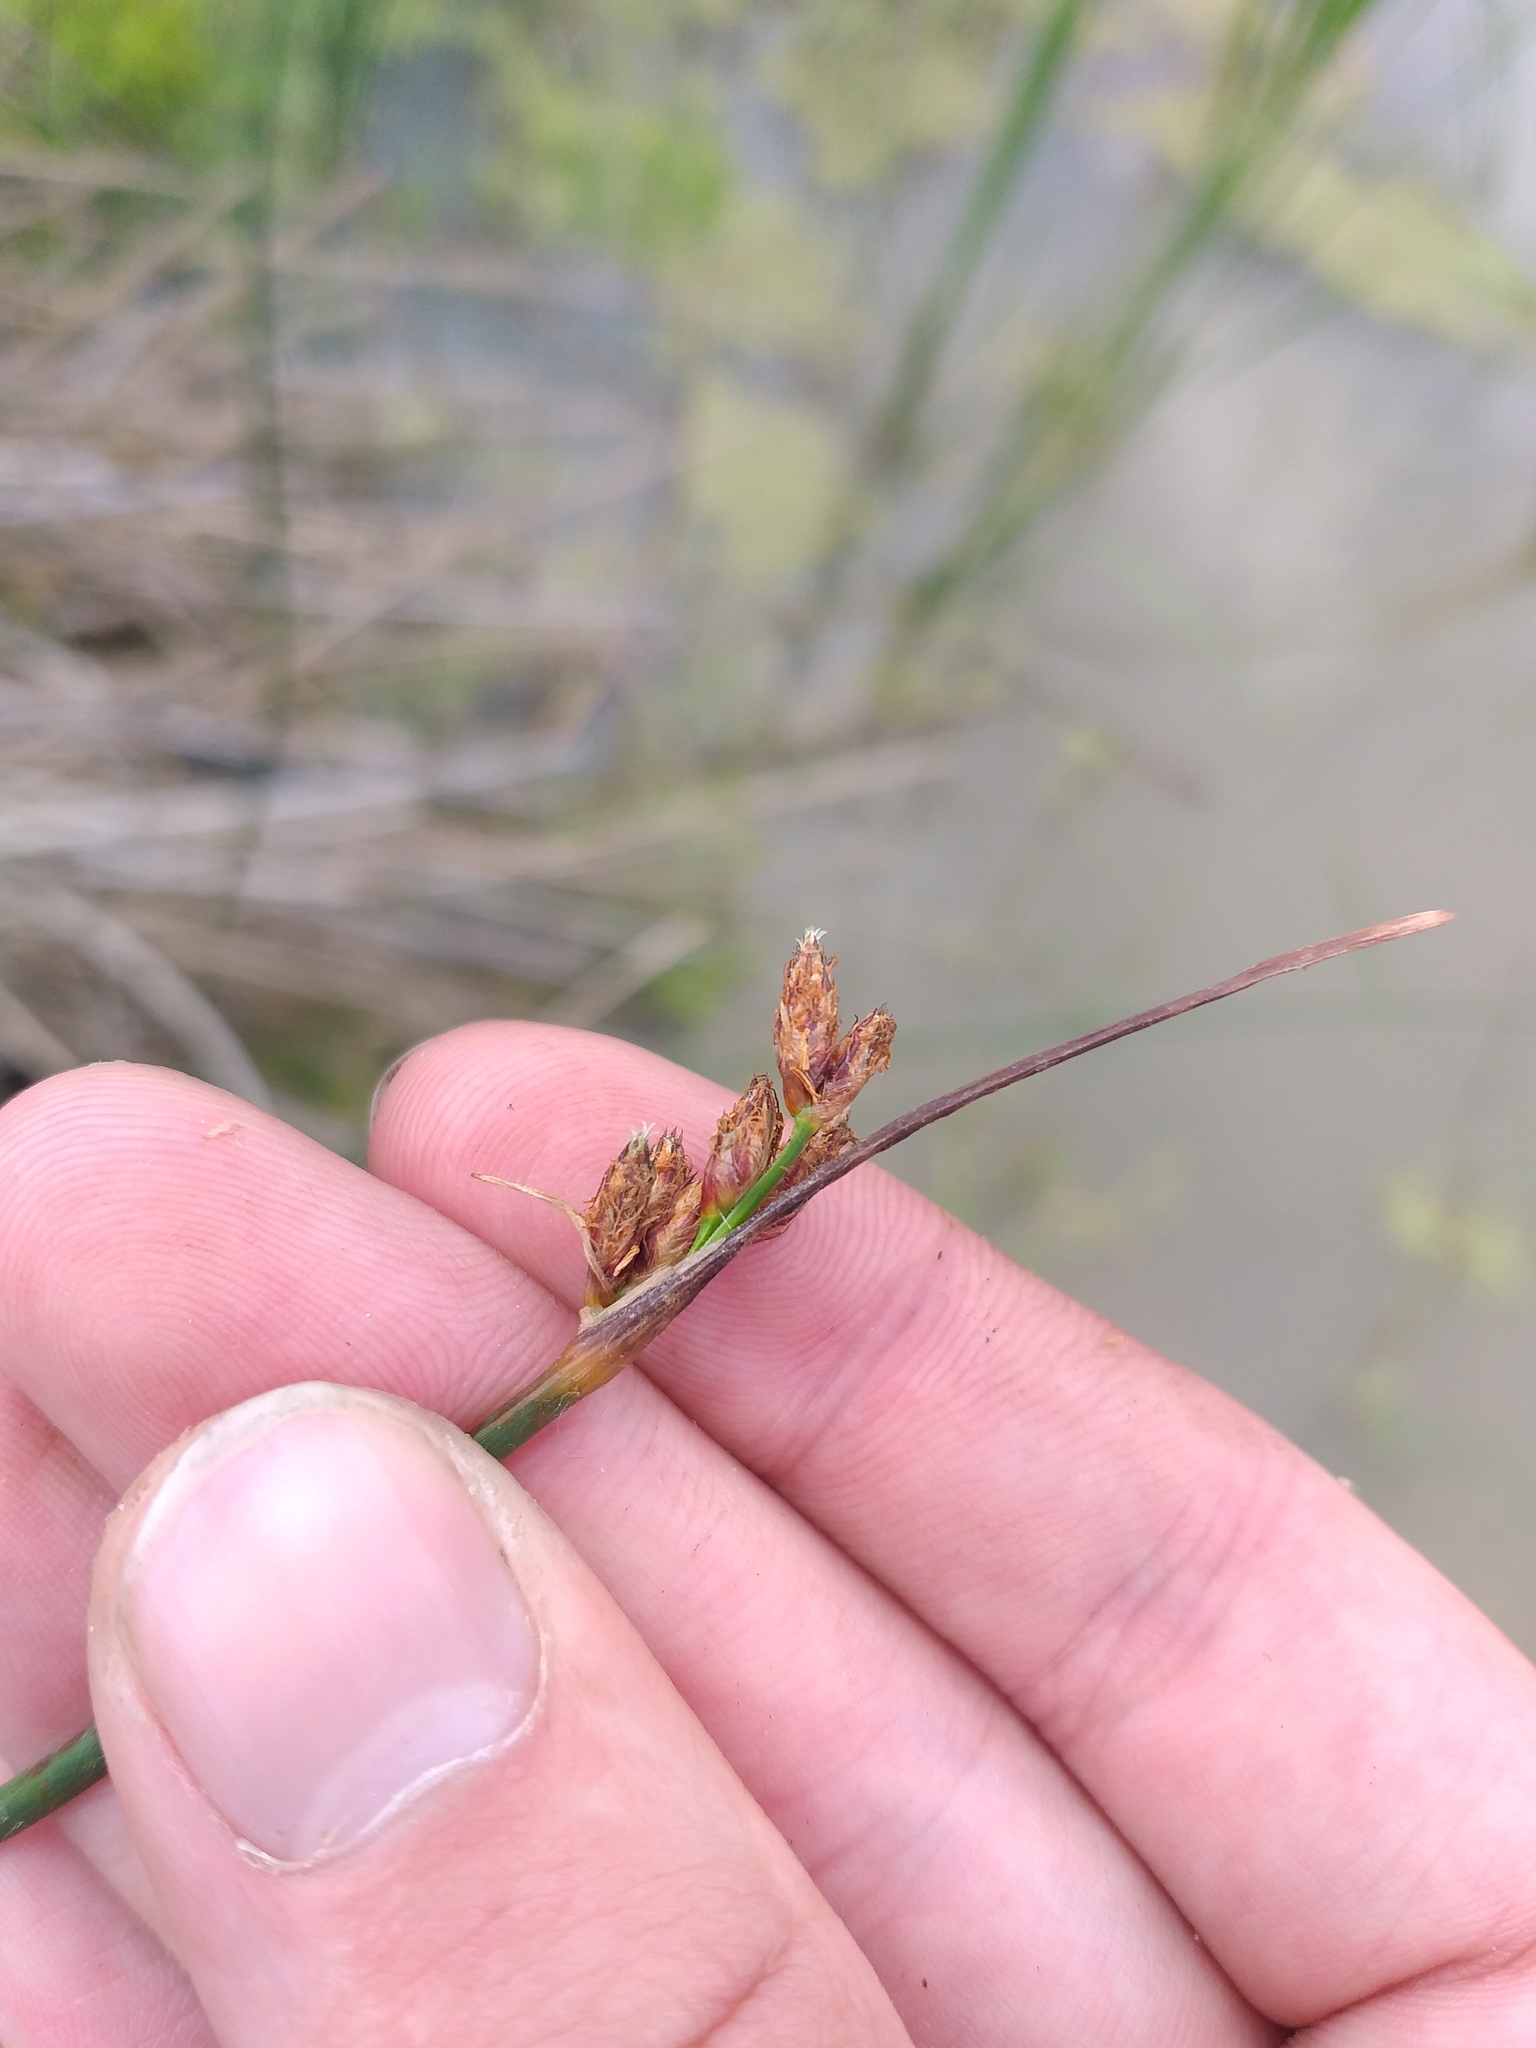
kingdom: Plantae
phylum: Tracheophyta
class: Liliopsida
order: Poales
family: Cyperaceae
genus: Schoenoplectus
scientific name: Schoenoplectus lacustris
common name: Common club-rush
